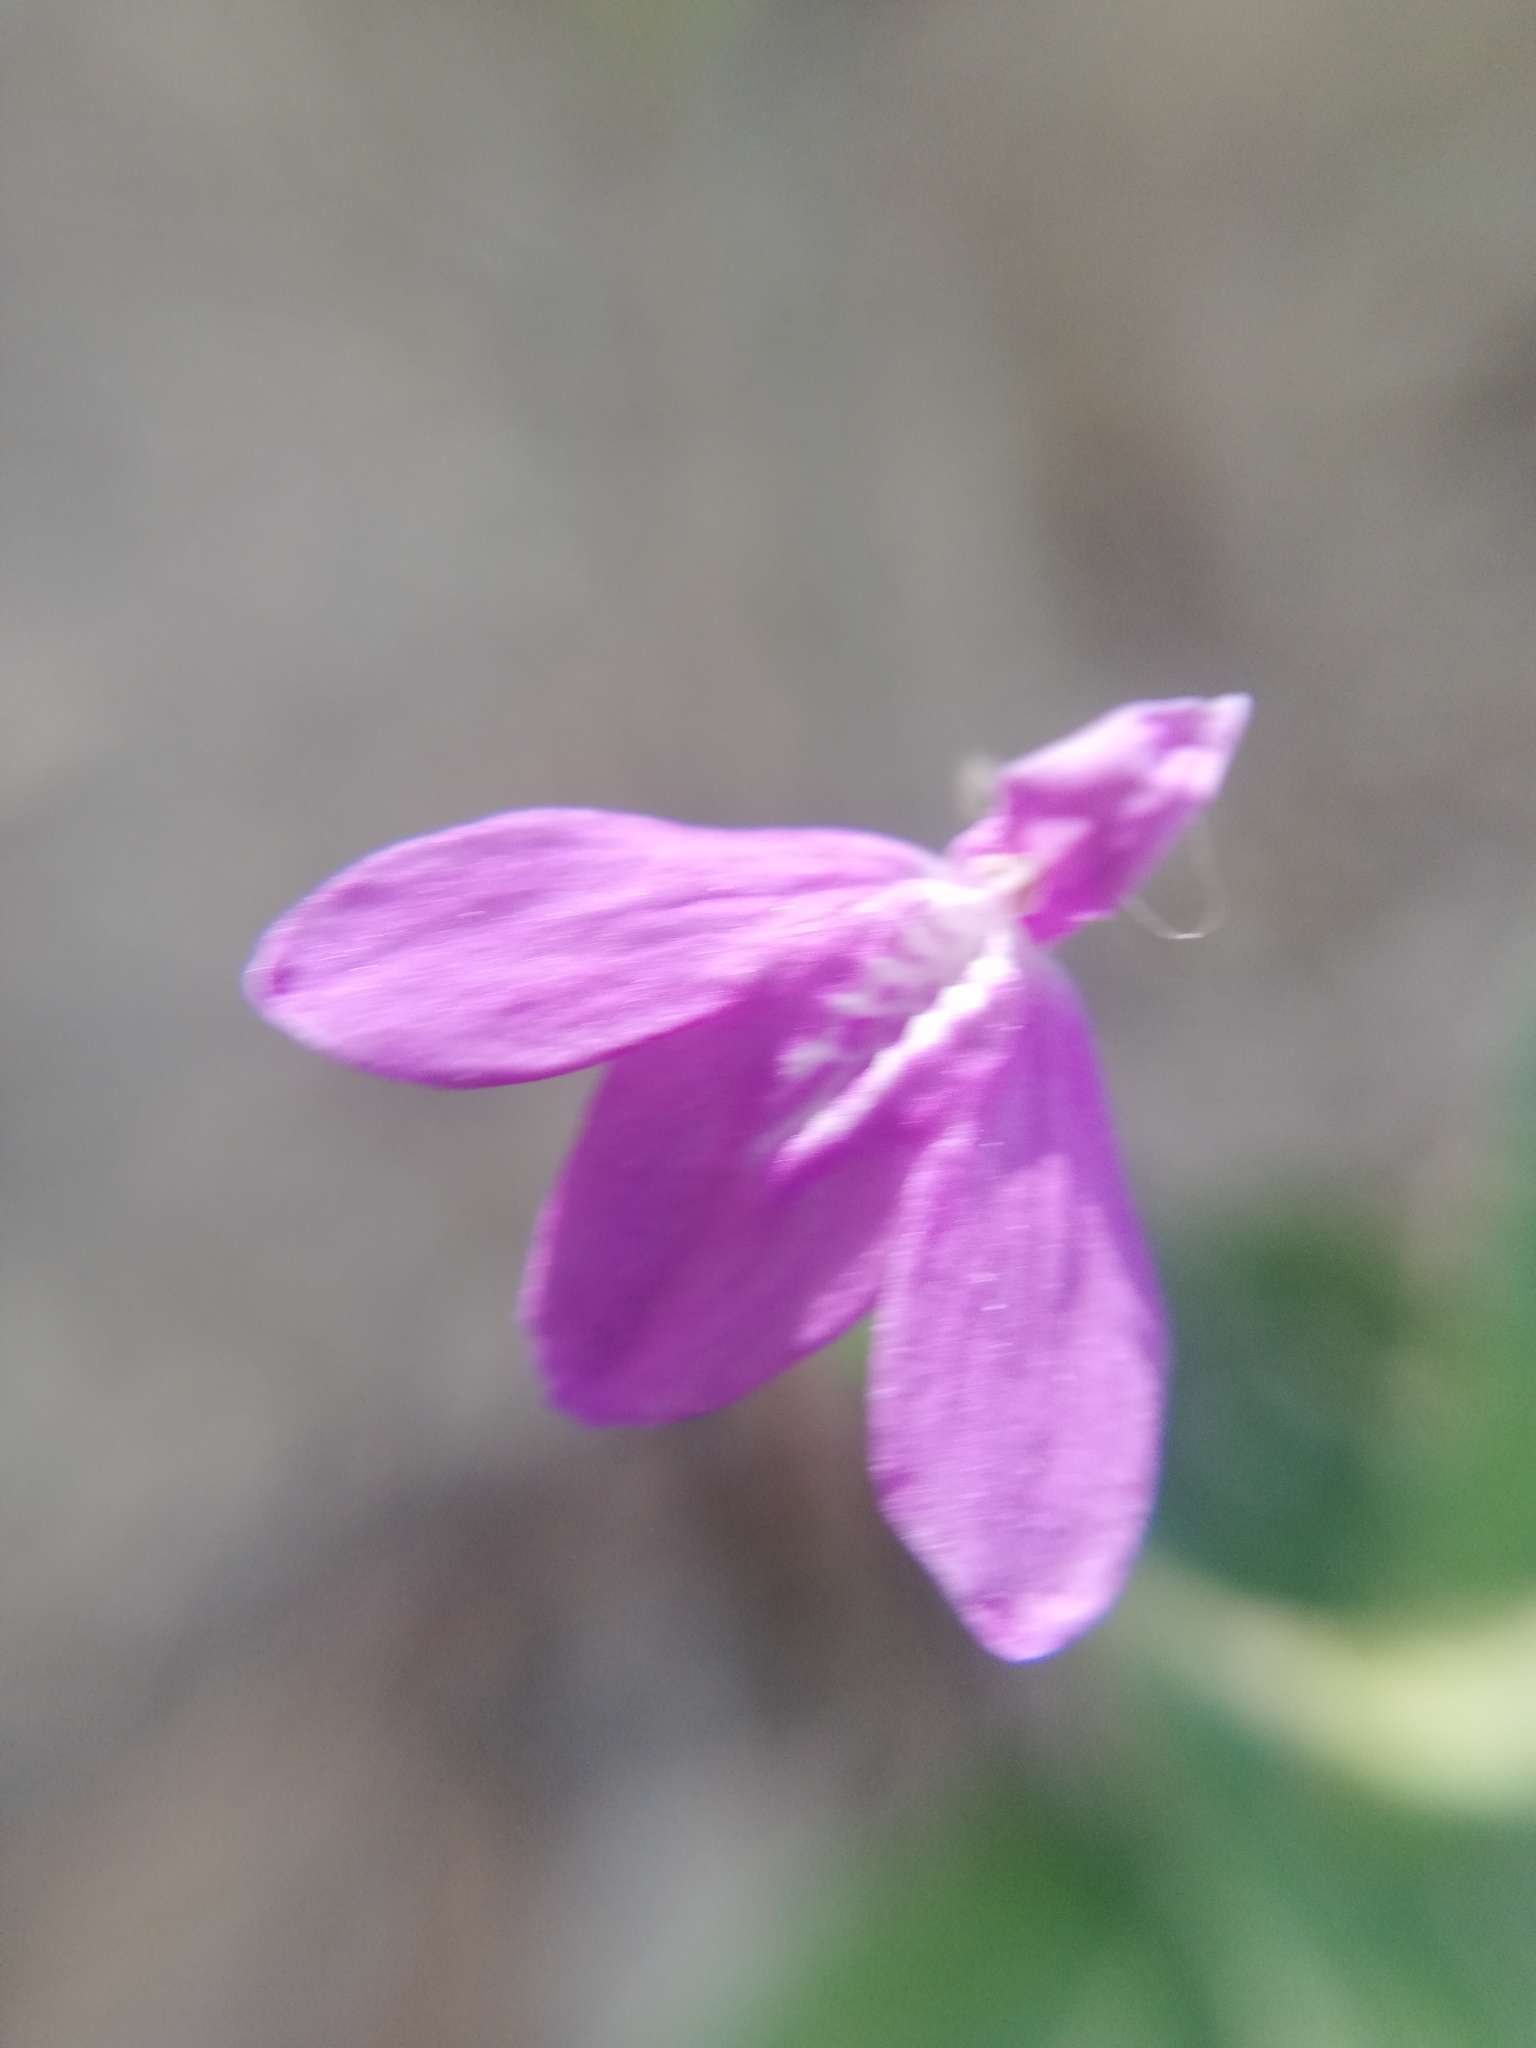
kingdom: Plantae
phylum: Tracheophyta
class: Magnoliopsida
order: Lamiales
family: Acanthaceae
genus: Justicia
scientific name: Justicia pilosella
